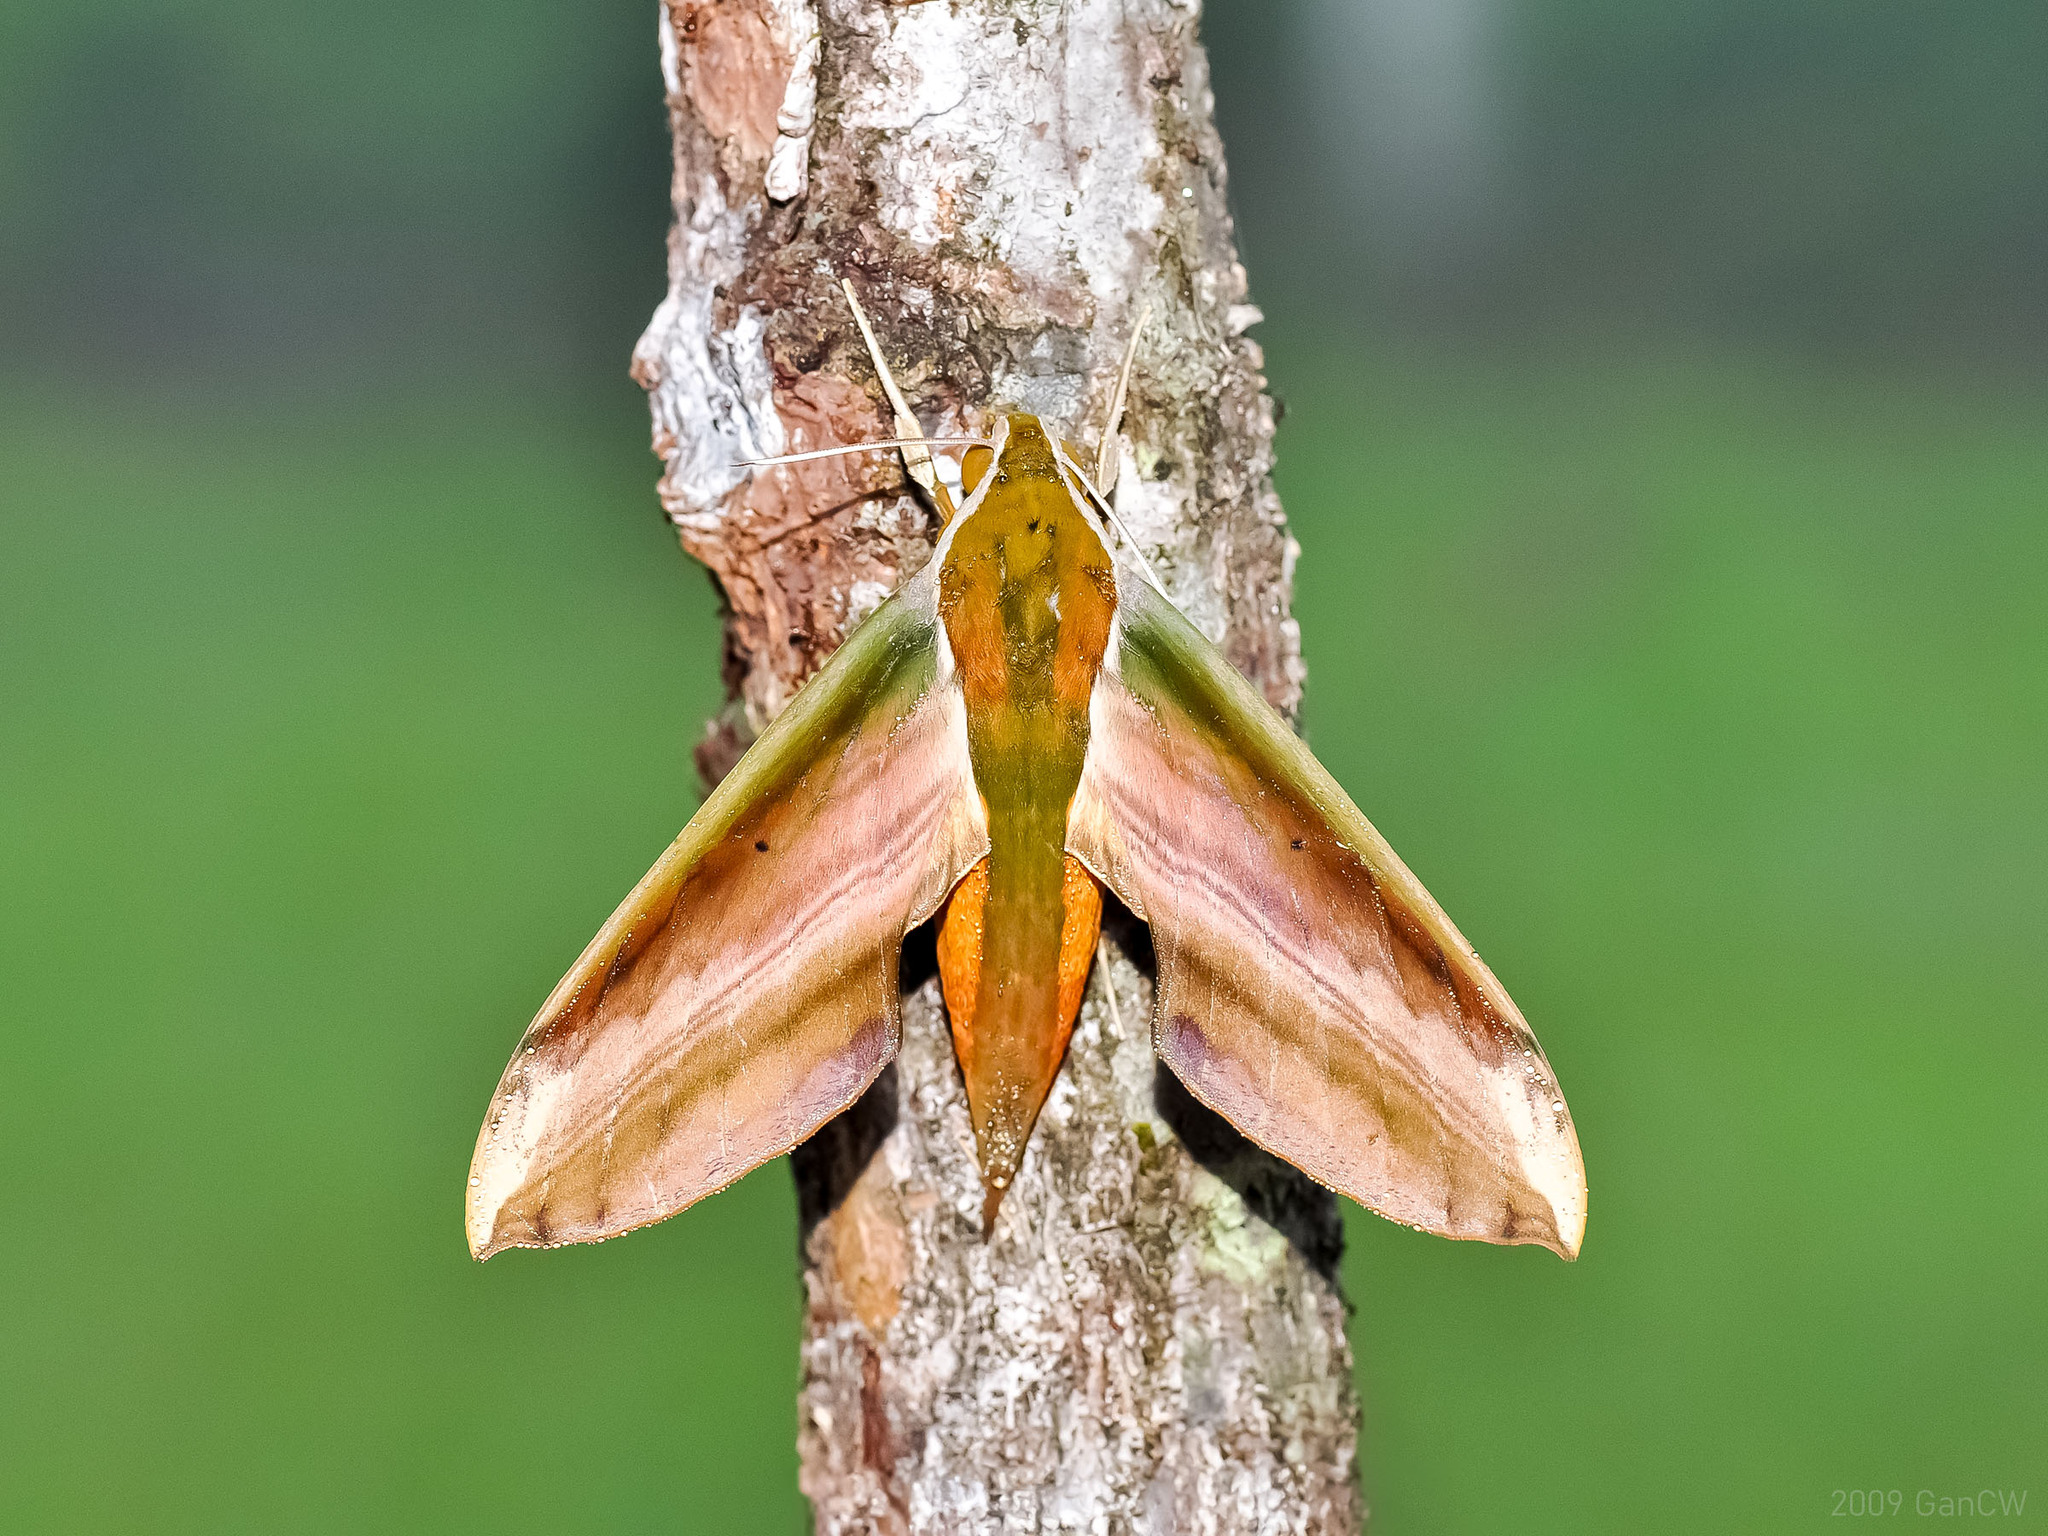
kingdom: Animalia
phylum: Arthropoda
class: Insecta
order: Lepidoptera
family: Sphingidae
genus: Theretra
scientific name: Theretra nessus
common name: Yam hawk moth
